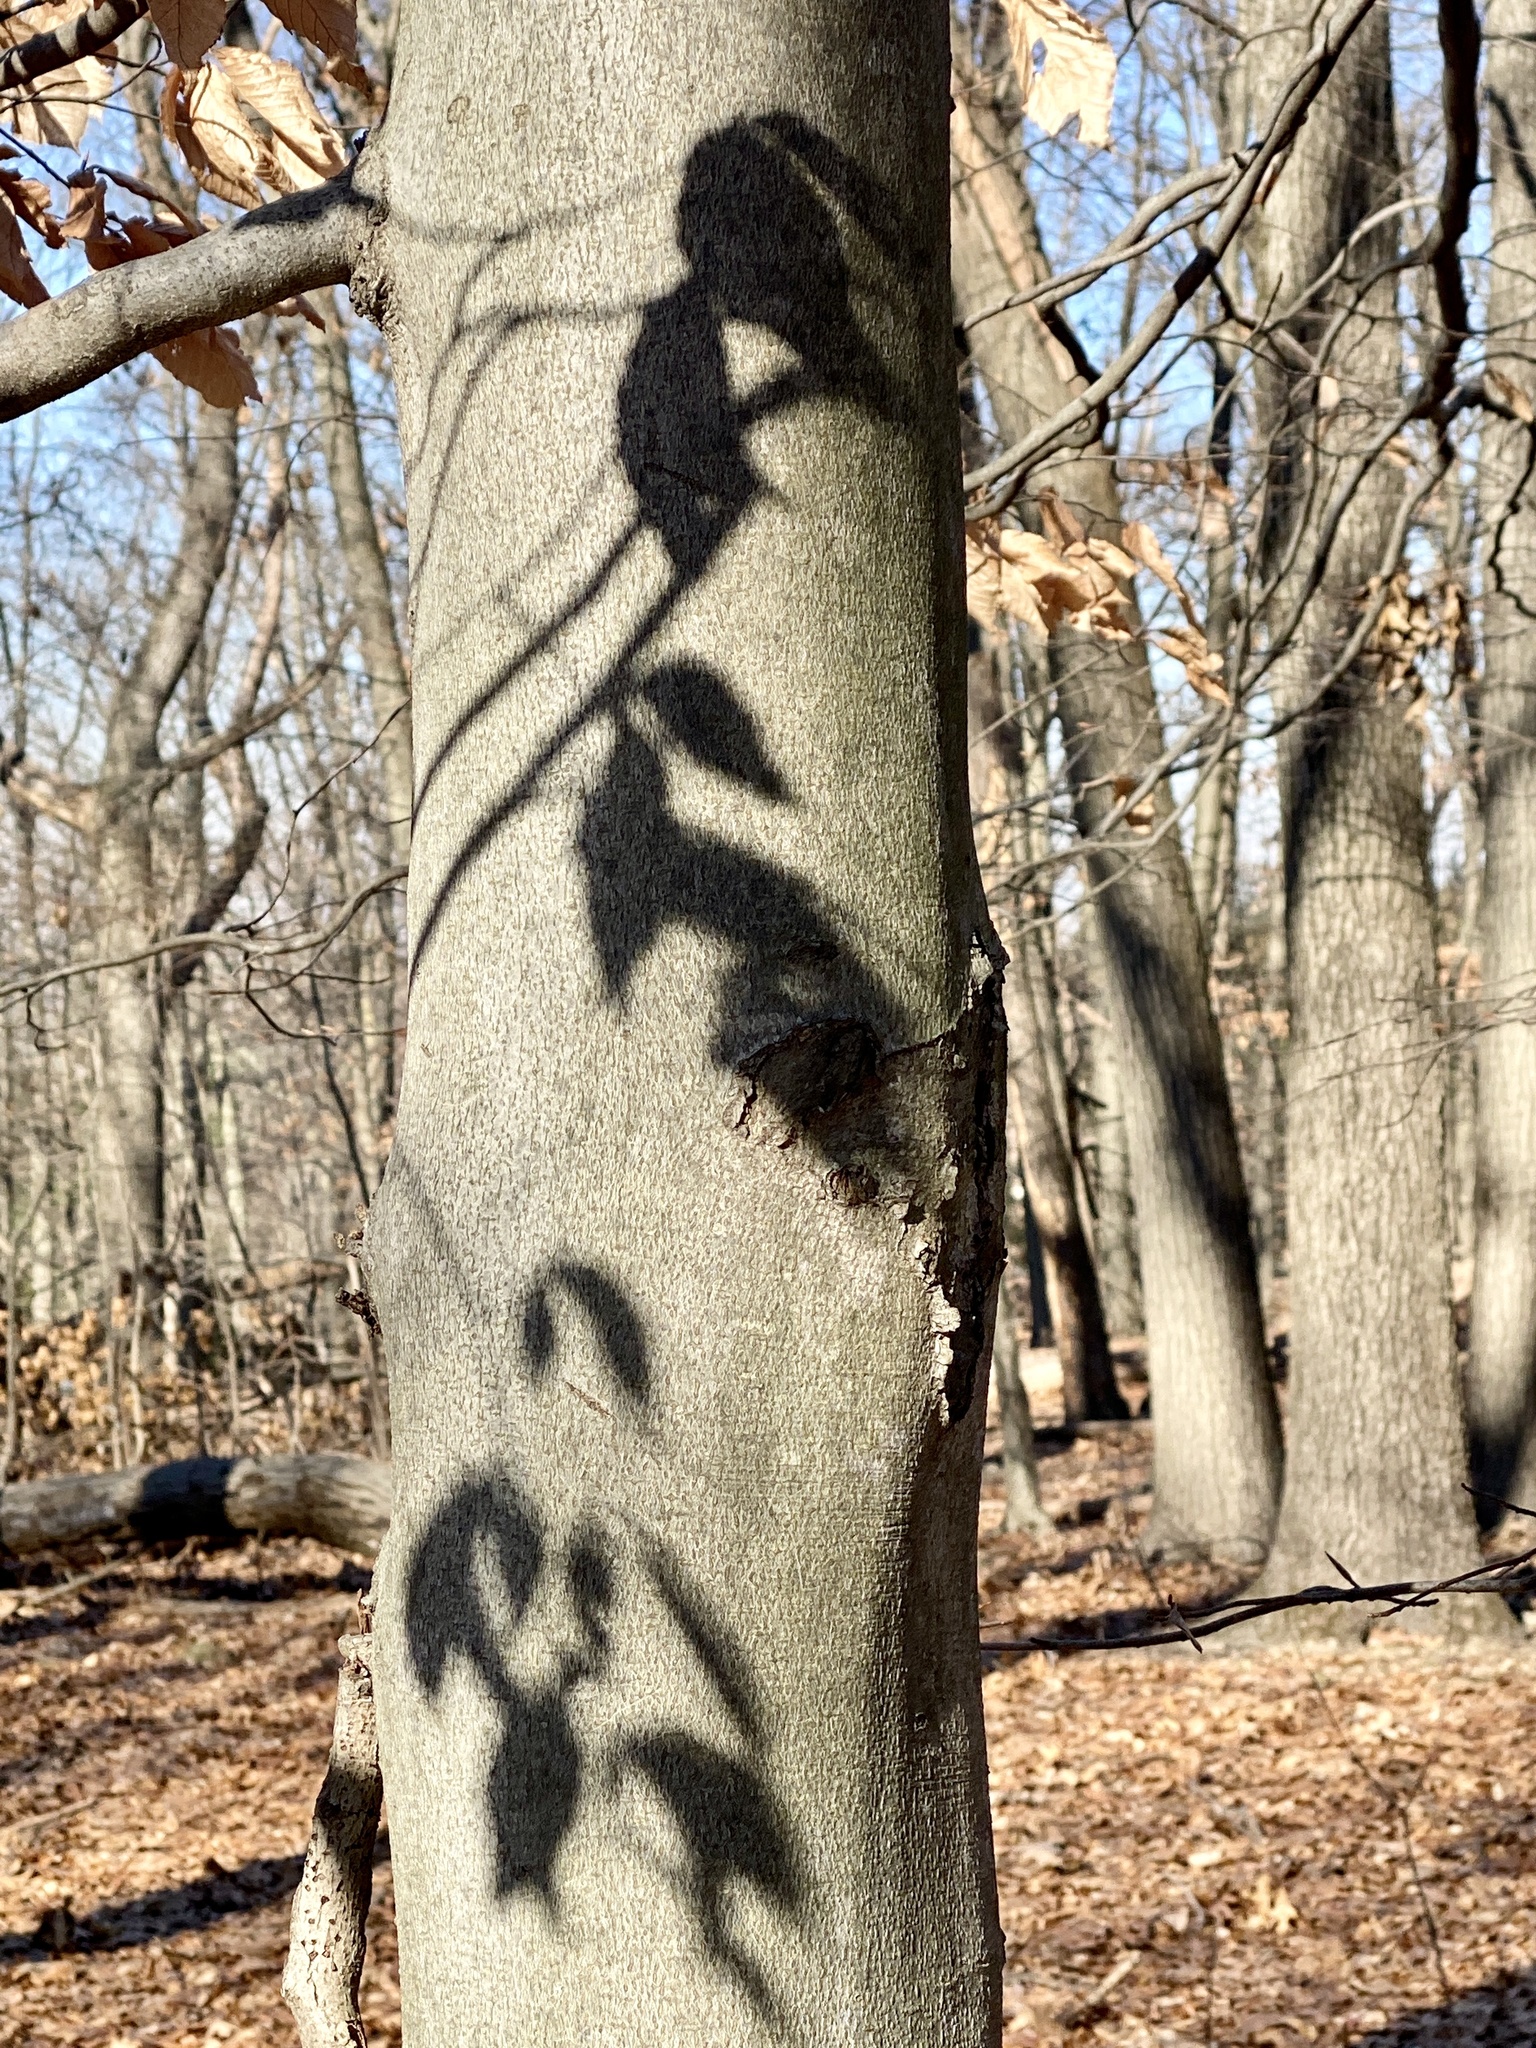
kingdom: Plantae
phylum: Tracheophyta
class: Magnoliopsida
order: Fagales
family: Fagaceae
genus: Fagus
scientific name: Fagus grandifolia
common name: American beech
